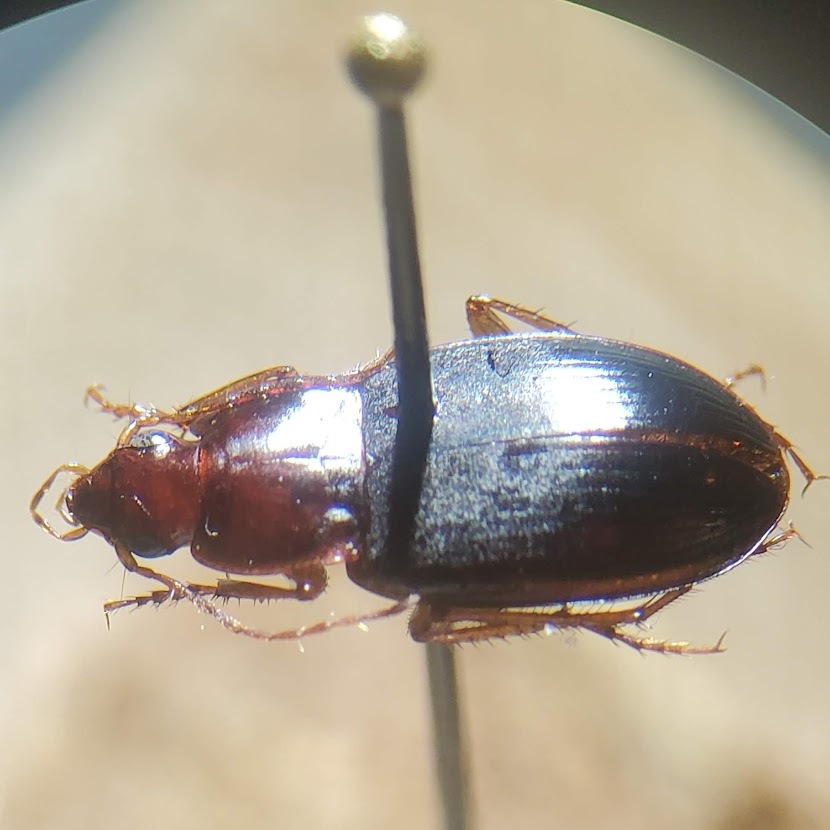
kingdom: Animalia
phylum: Arthropoda
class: Insecta
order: Coleoptera
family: Carabidae
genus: Calathus
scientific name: Calathus ruficollis
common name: Red-collared harp ground beetle
